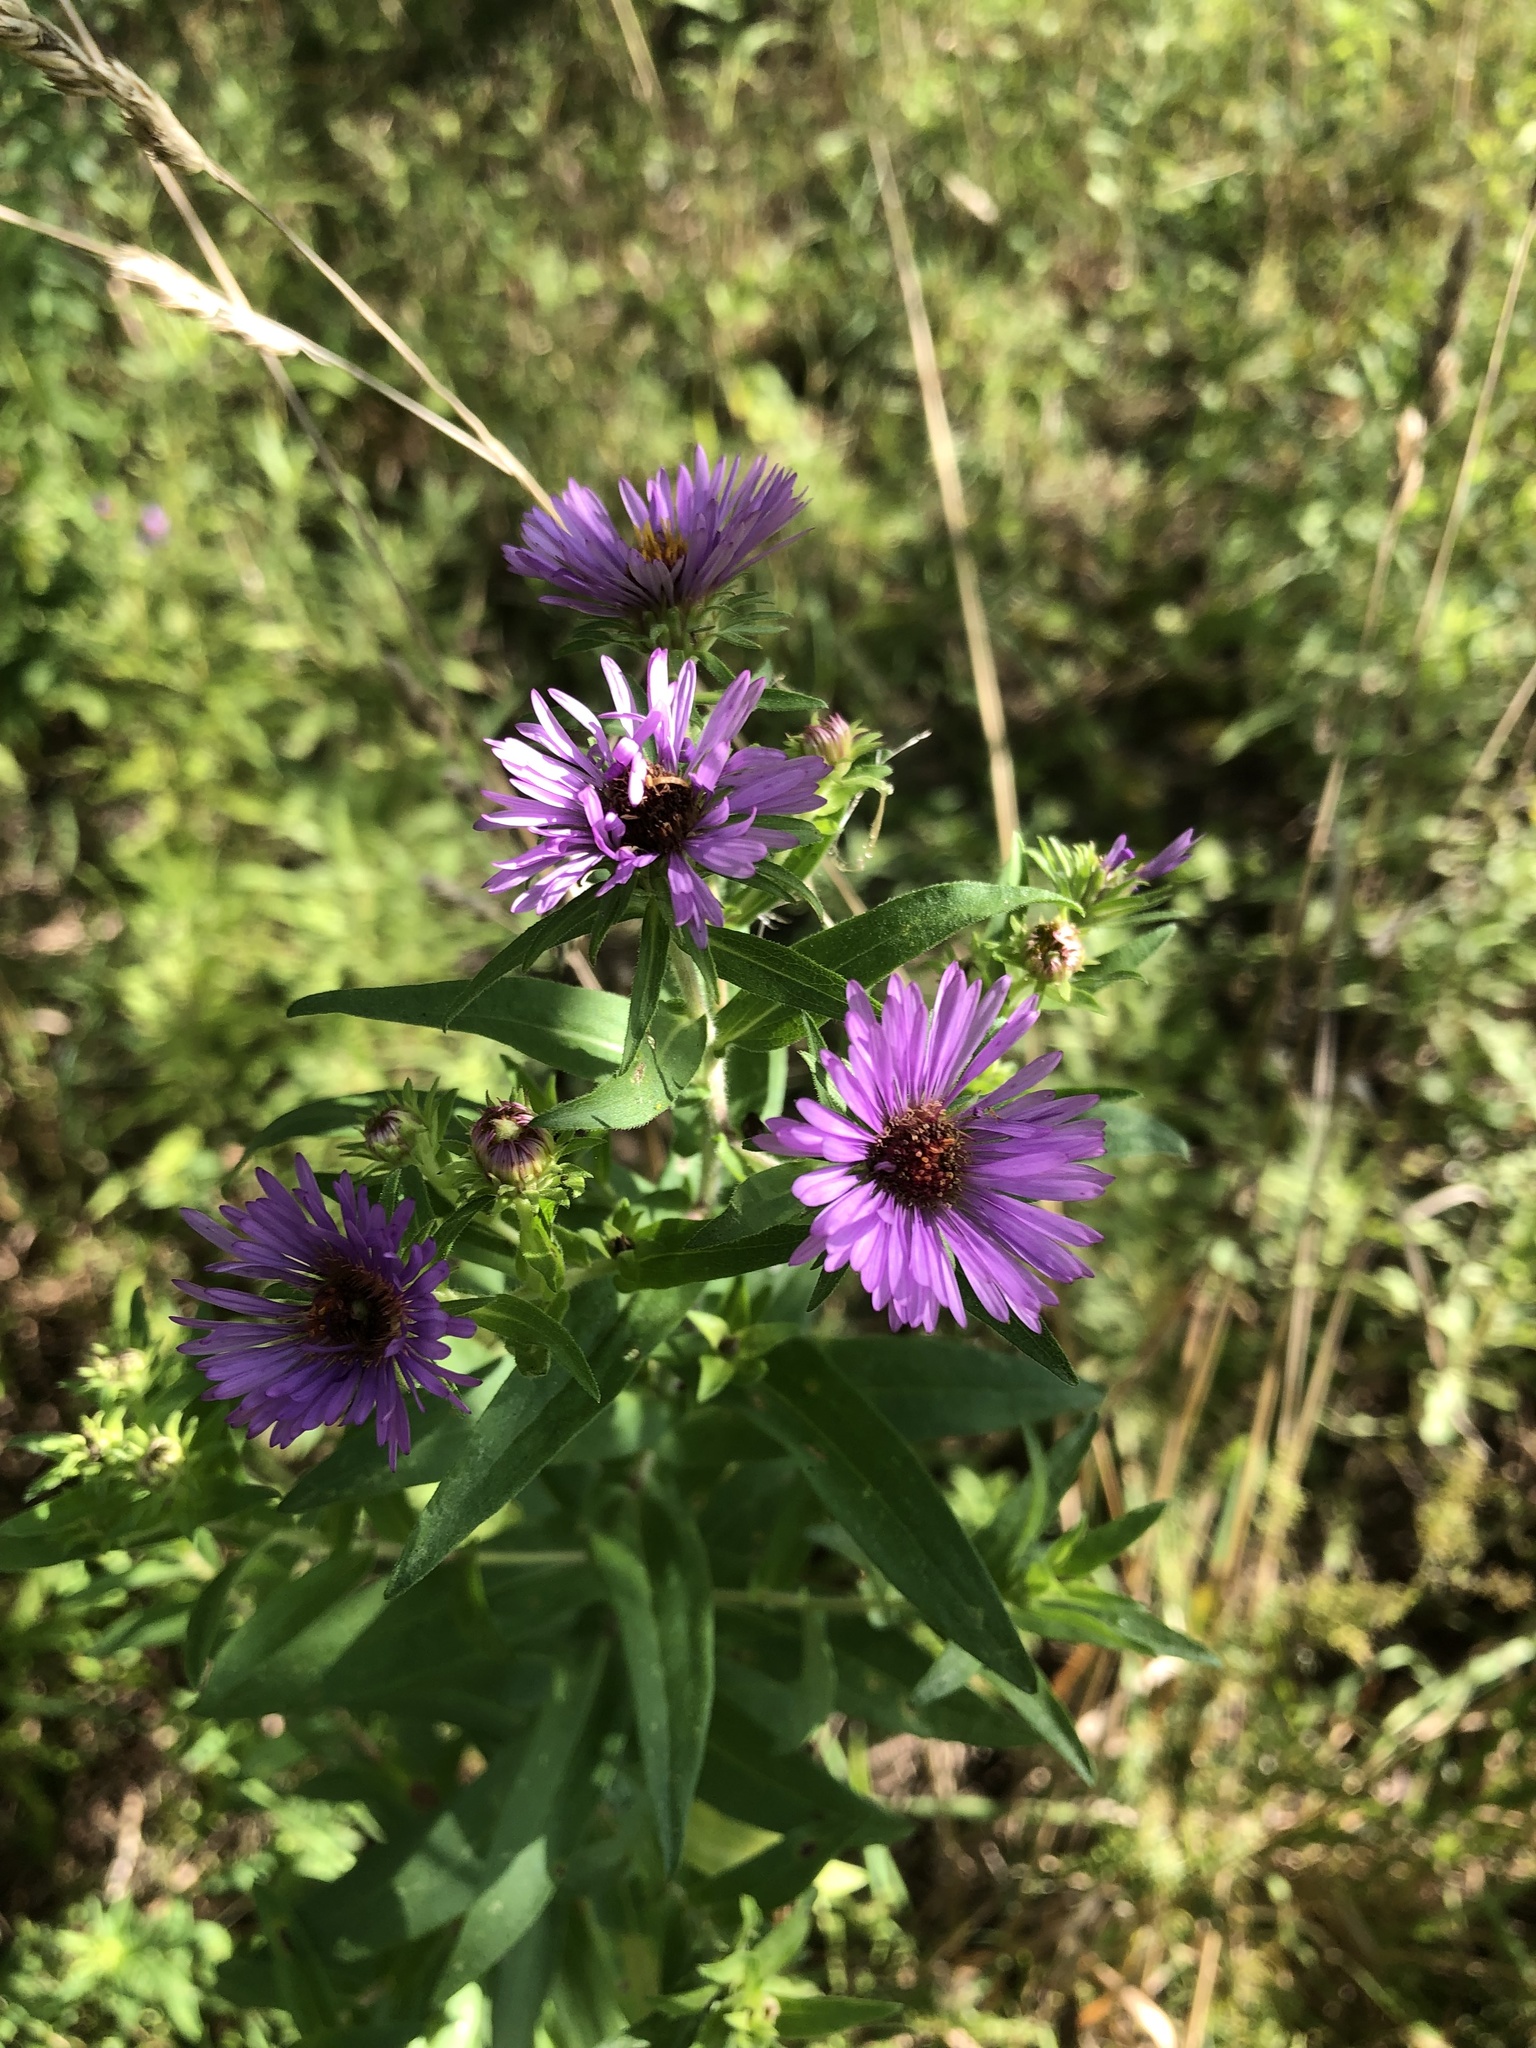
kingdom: Plantae
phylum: Tracheophyta
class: Magnoliopsida
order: Asterales
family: Asteraceae
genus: Symphyotrichum
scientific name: Symphyotrichum novae-angliae
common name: Michaelmas daisy
